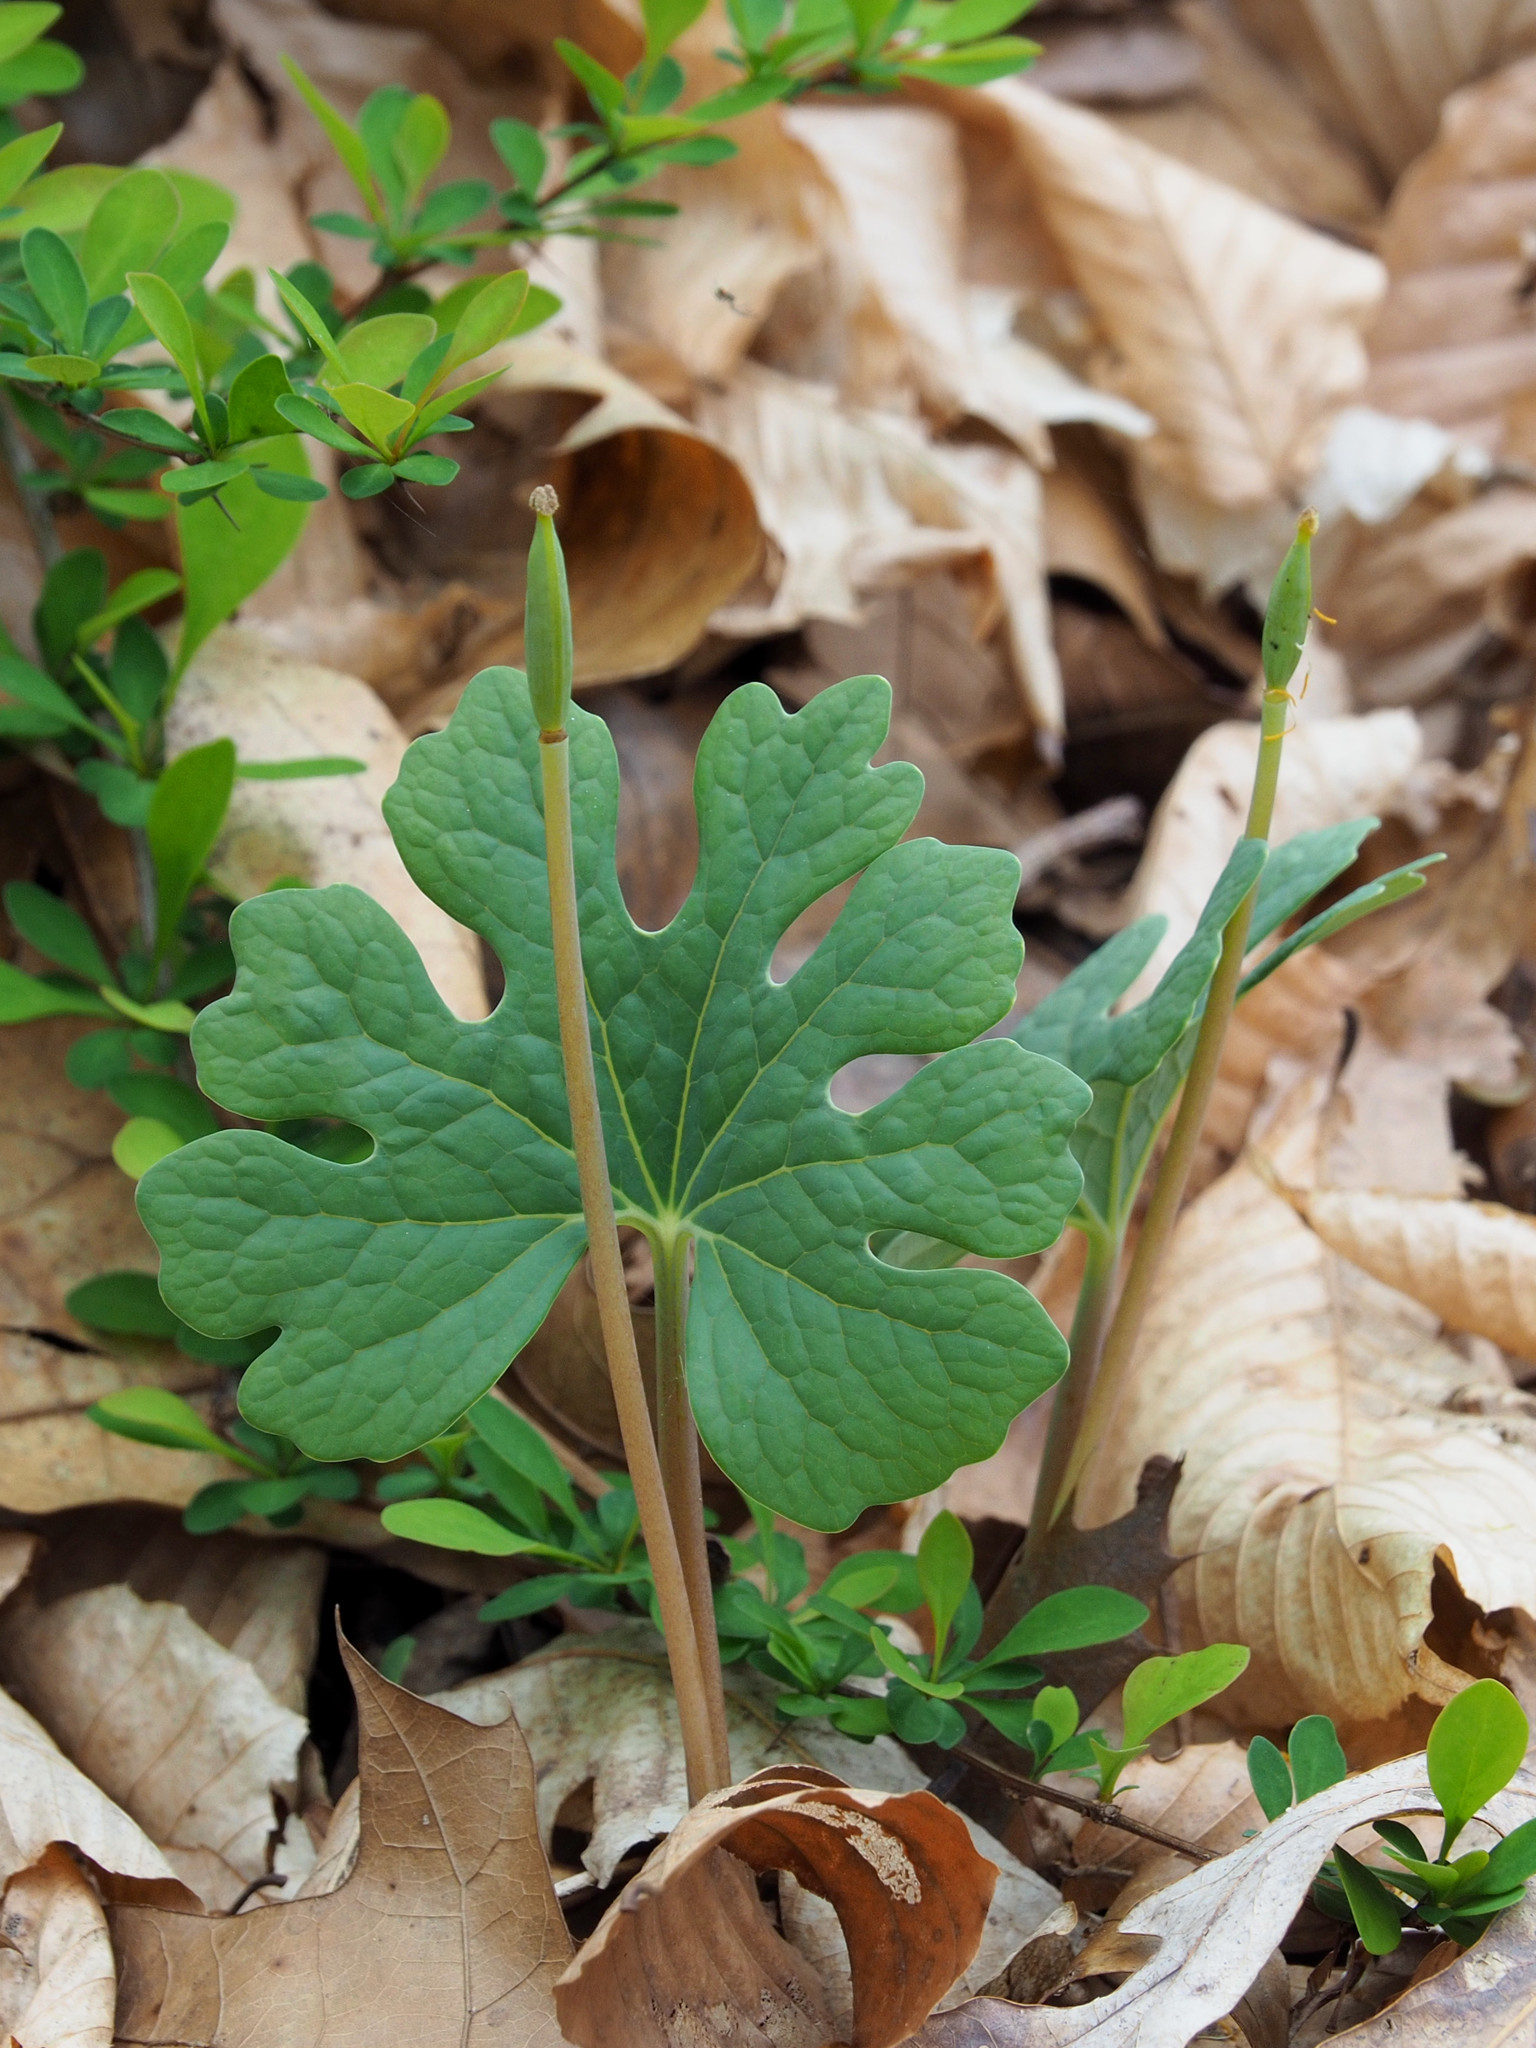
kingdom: Plantae
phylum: Tracheophyta
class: Magnoliopsida
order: Ranunculales
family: Papaveraceae
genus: Sanguinaria
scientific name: Sanguinaria canadensis
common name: Bloodroot
